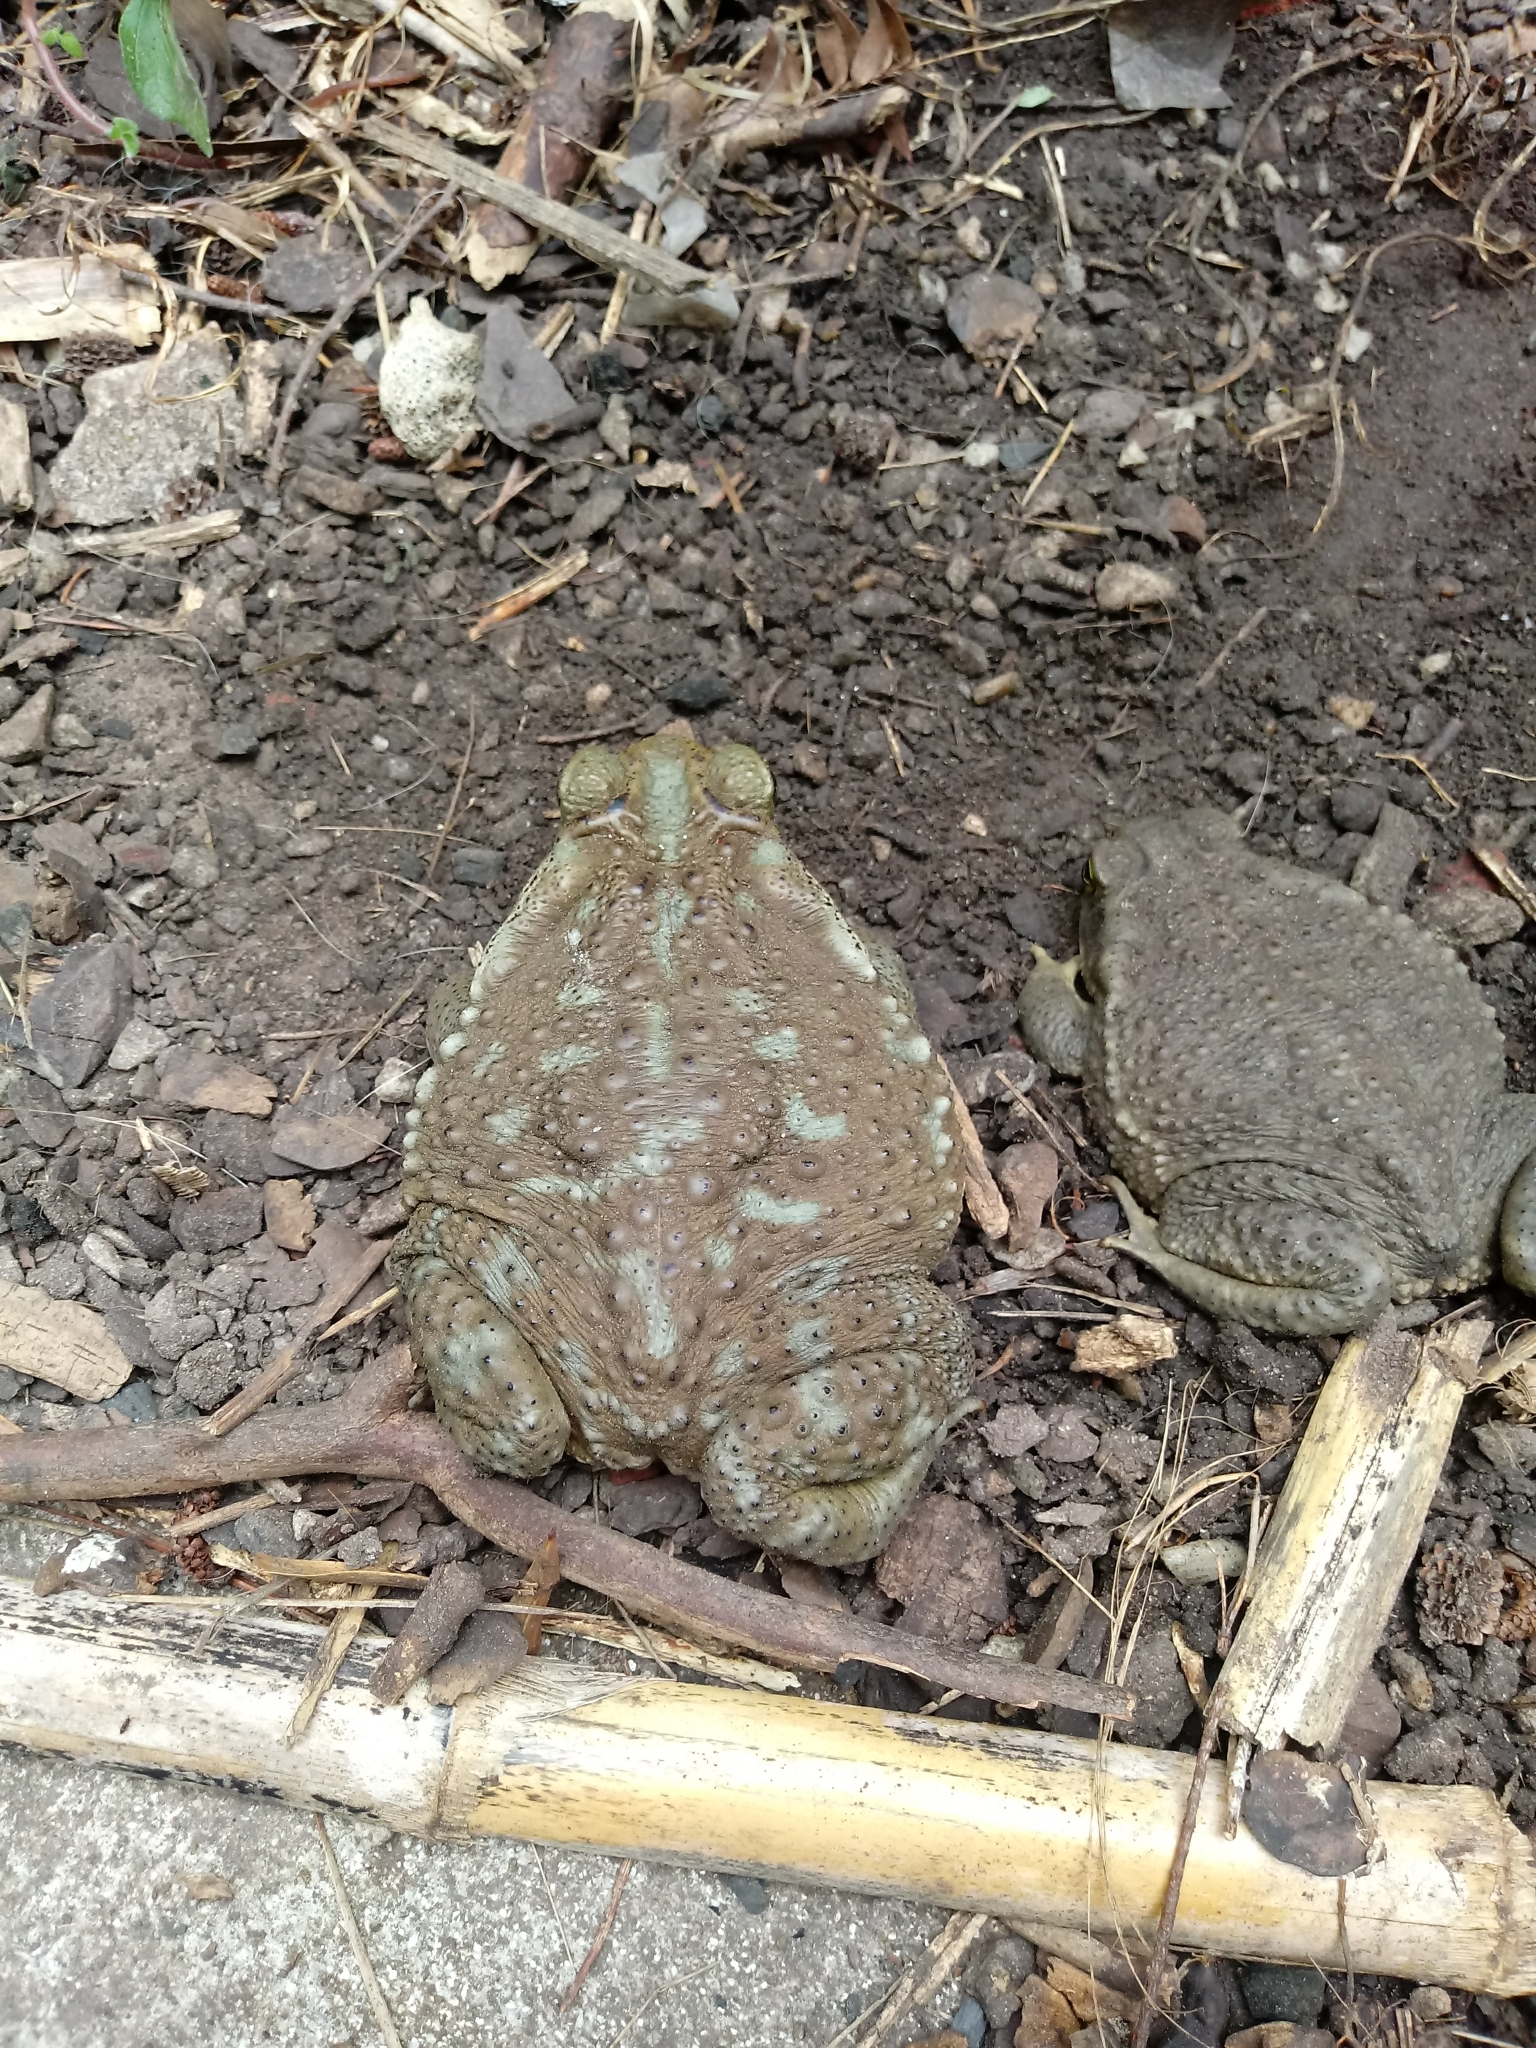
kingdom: Animalia
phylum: Chordata
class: Amphibia
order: Anura
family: Bufonidae
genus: Rhinella
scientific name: Rhinella arenarum
